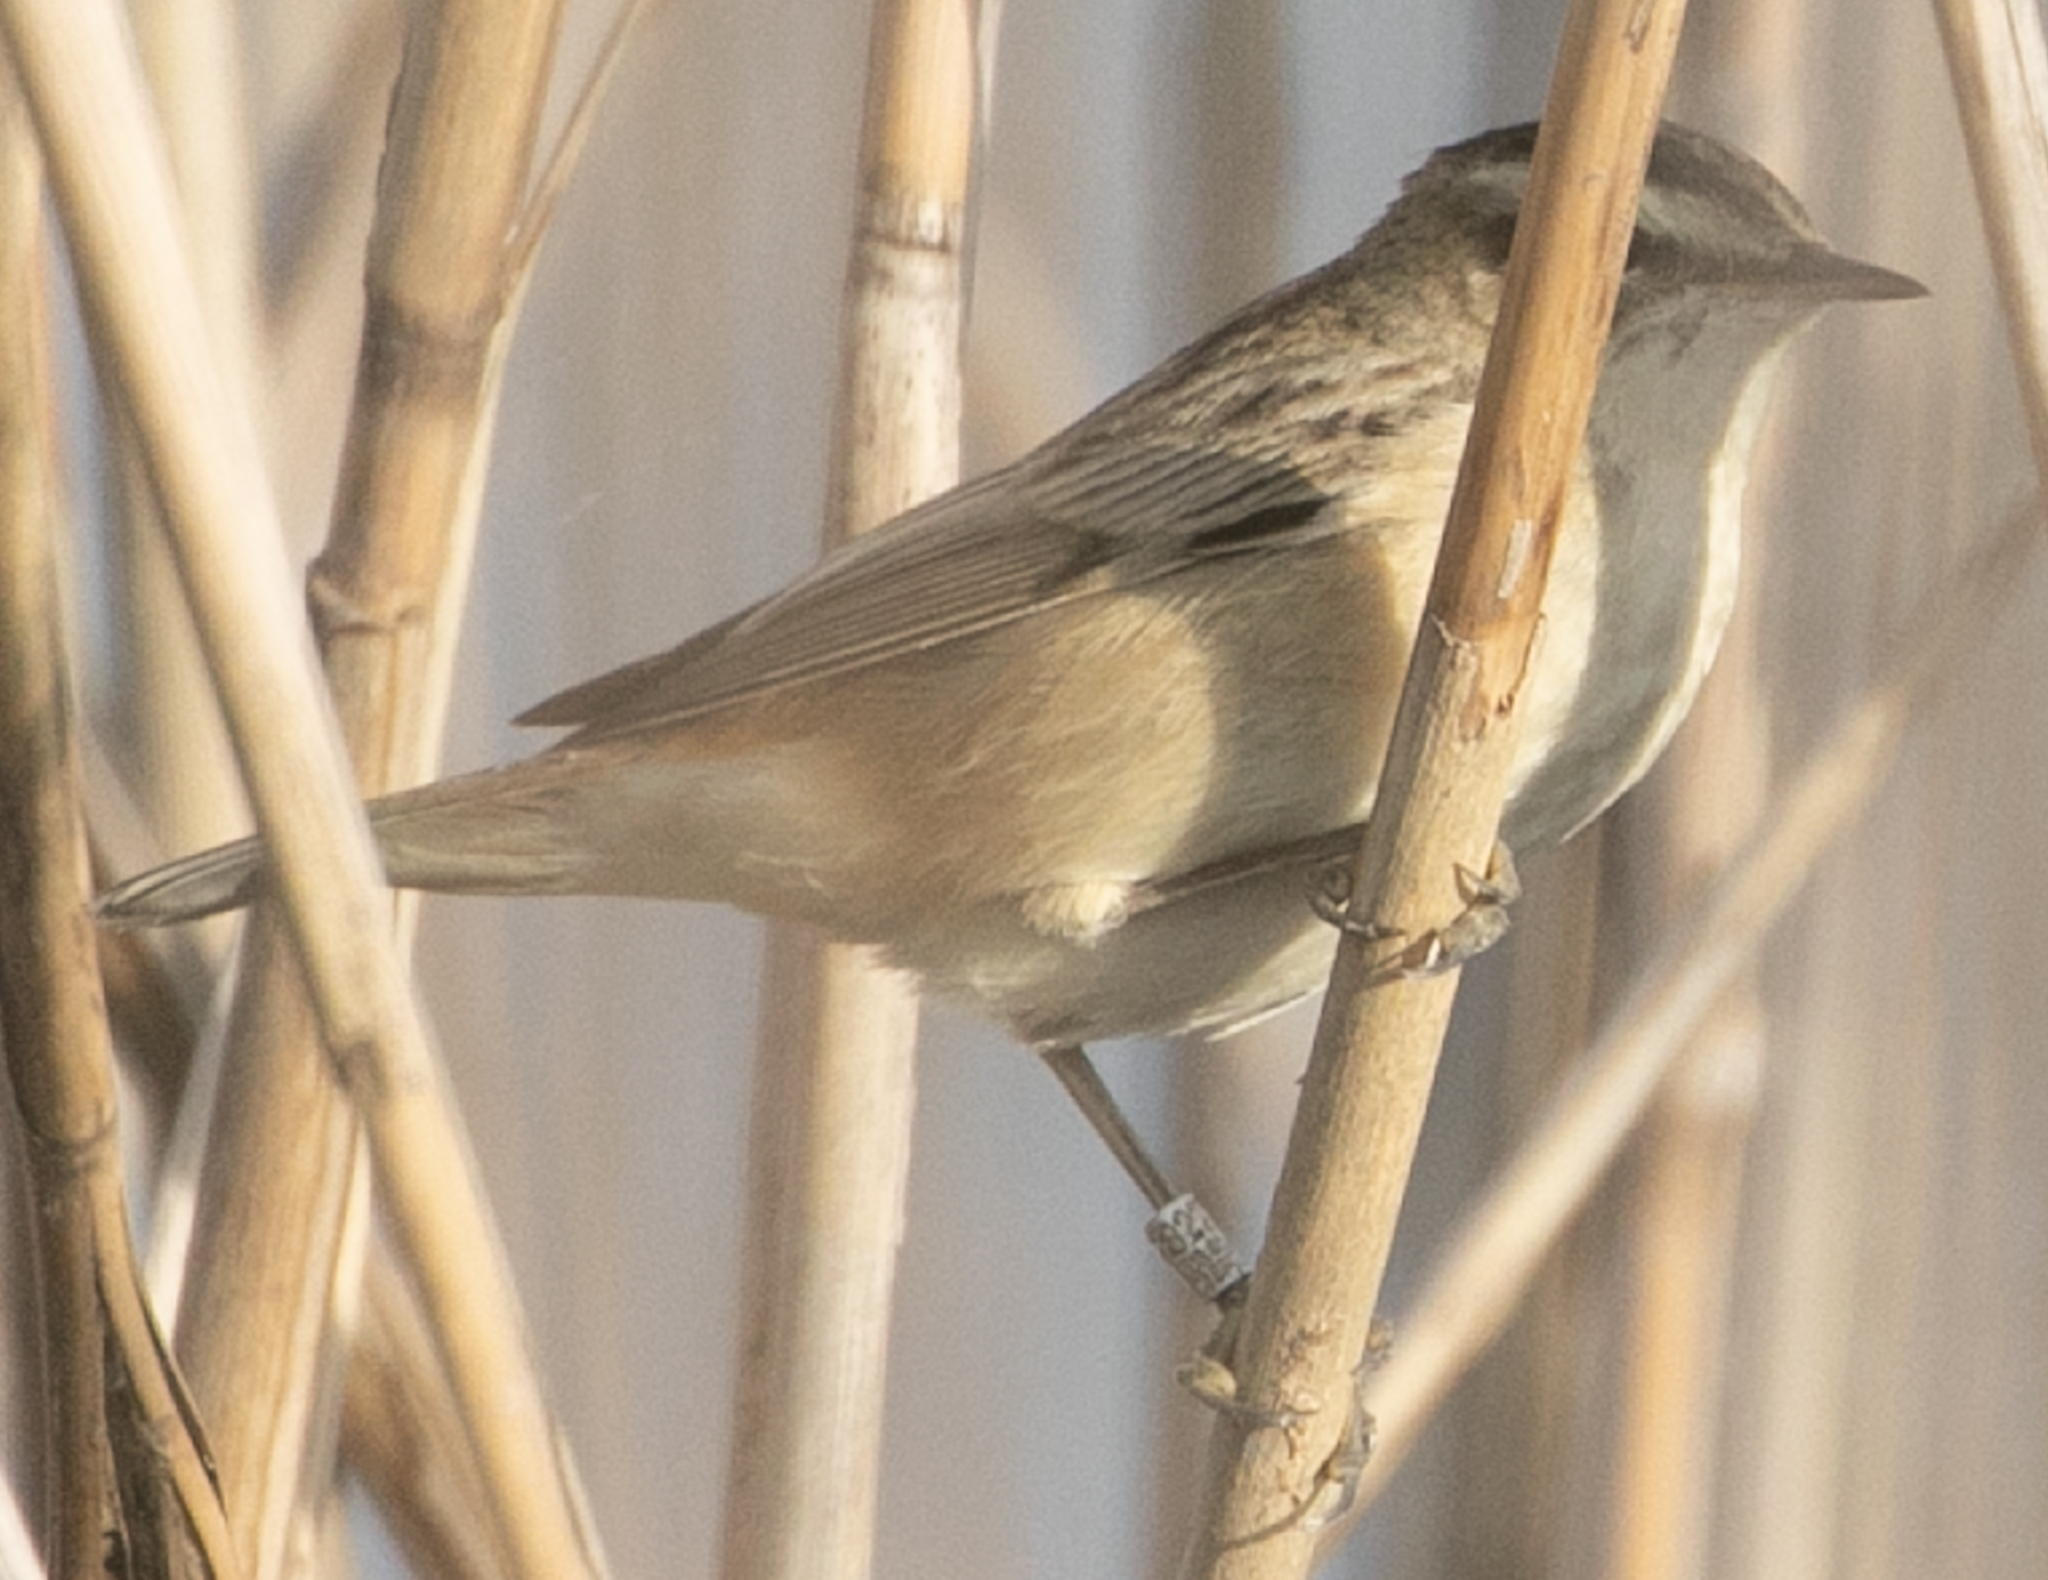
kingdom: Animalia
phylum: Chordata
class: Aves
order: Passeriformes
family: Acrocephalidae
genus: Acrocephalus
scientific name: Acrocephalus schoenobaenus
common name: Sedge warbler
